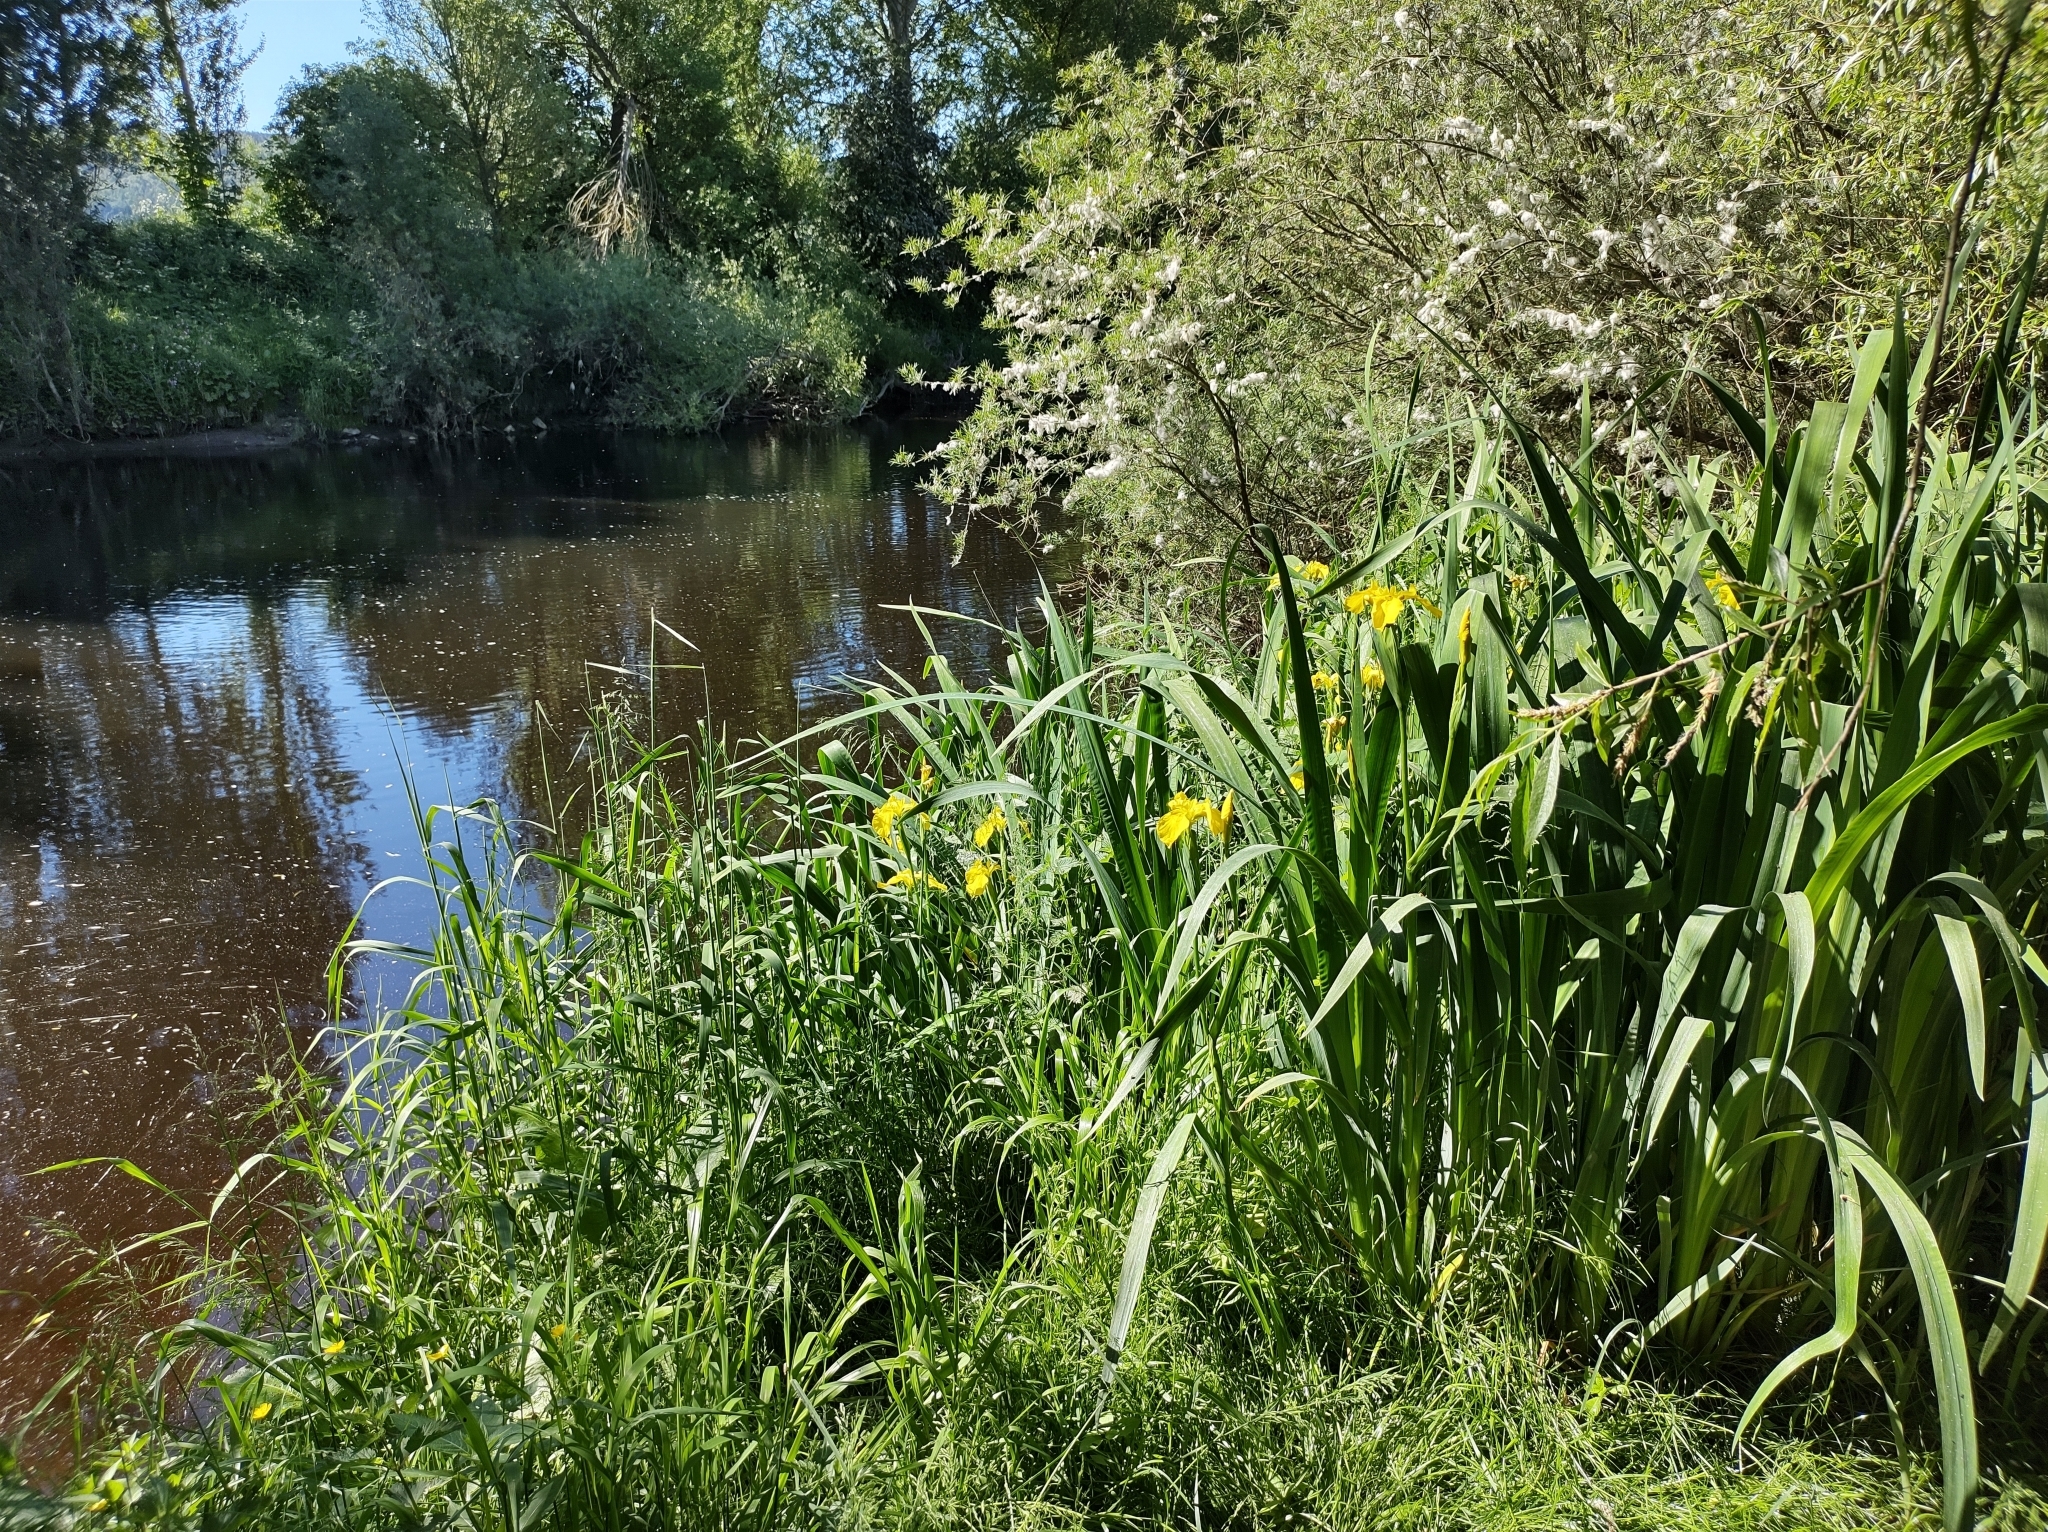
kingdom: Plantae
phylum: Tracheophyta
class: Liliopsida
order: Asparagales
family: Iridaceae
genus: Iris
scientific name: Iris pseudacorus
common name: Yellow flag
